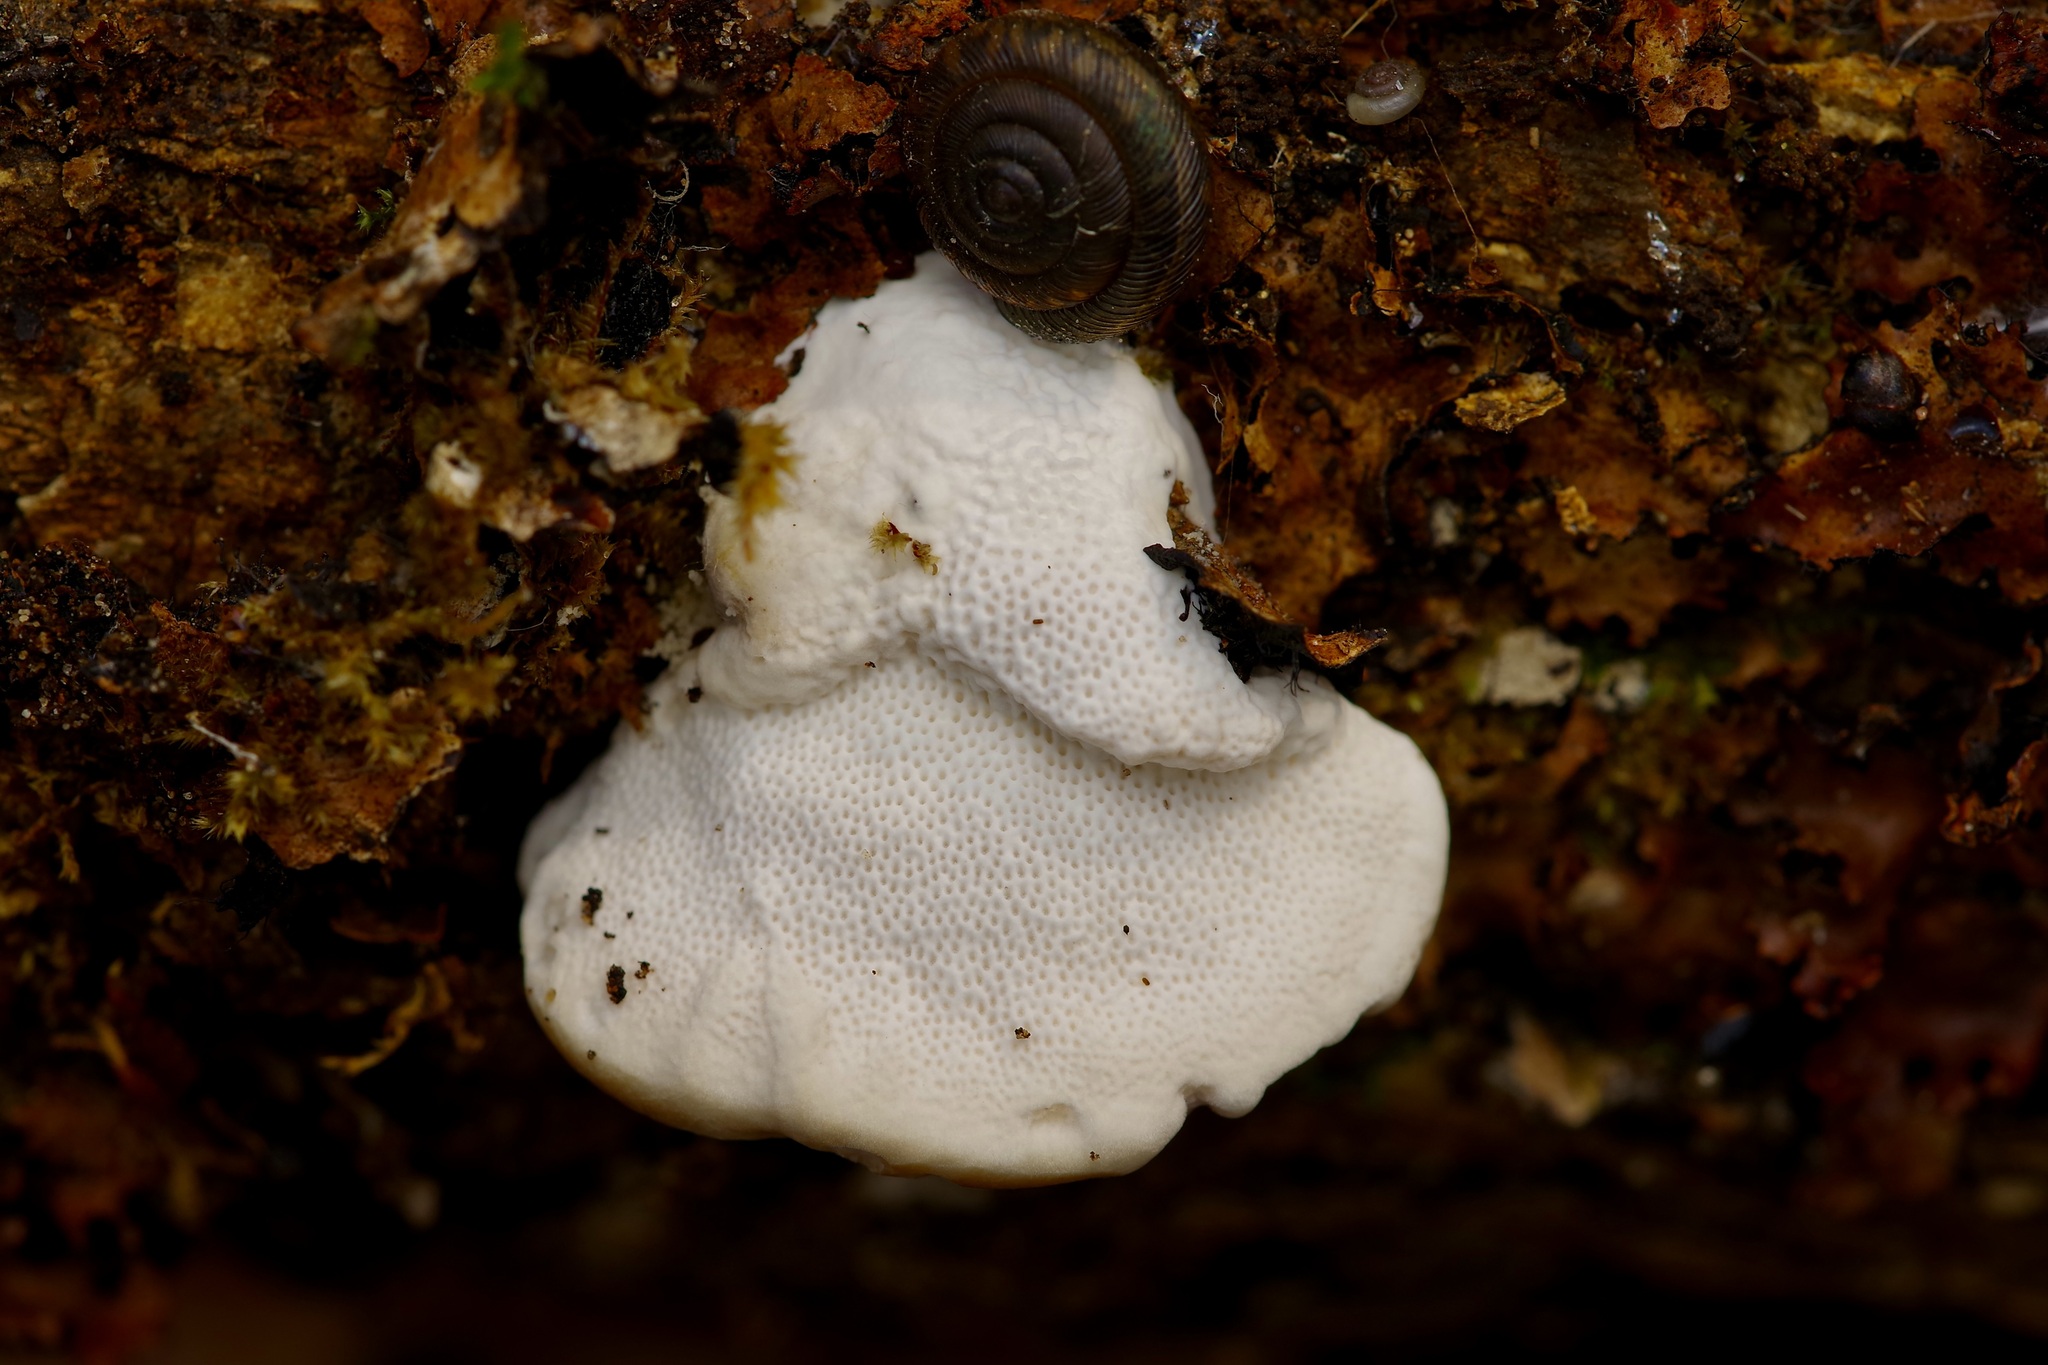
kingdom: Fungi
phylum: Basidiomycota
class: Agaricomycetes
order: Polyporales
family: Polyporaceae
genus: Trametes
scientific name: Trametes lactinea
